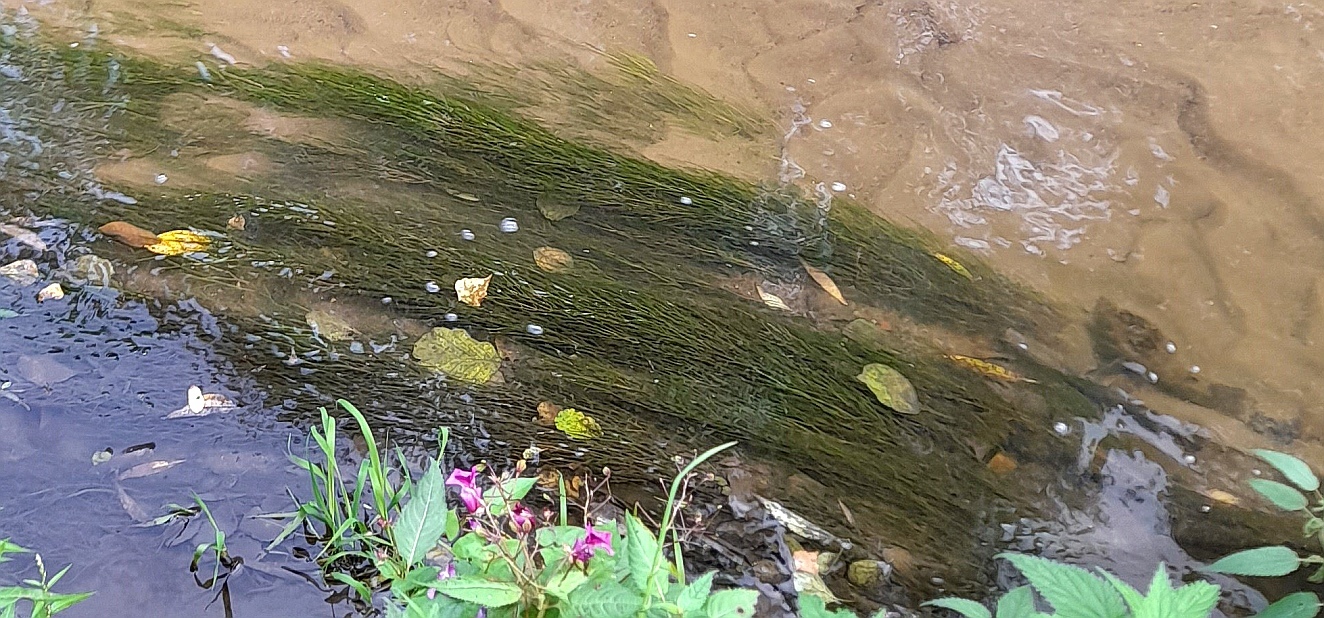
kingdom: Plantae
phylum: Tracheophyta
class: Liliopsida
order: Alismatales
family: Potamogetonaceae
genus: Stuckenia
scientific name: Stuckenia pectinata
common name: Sago pondweed
